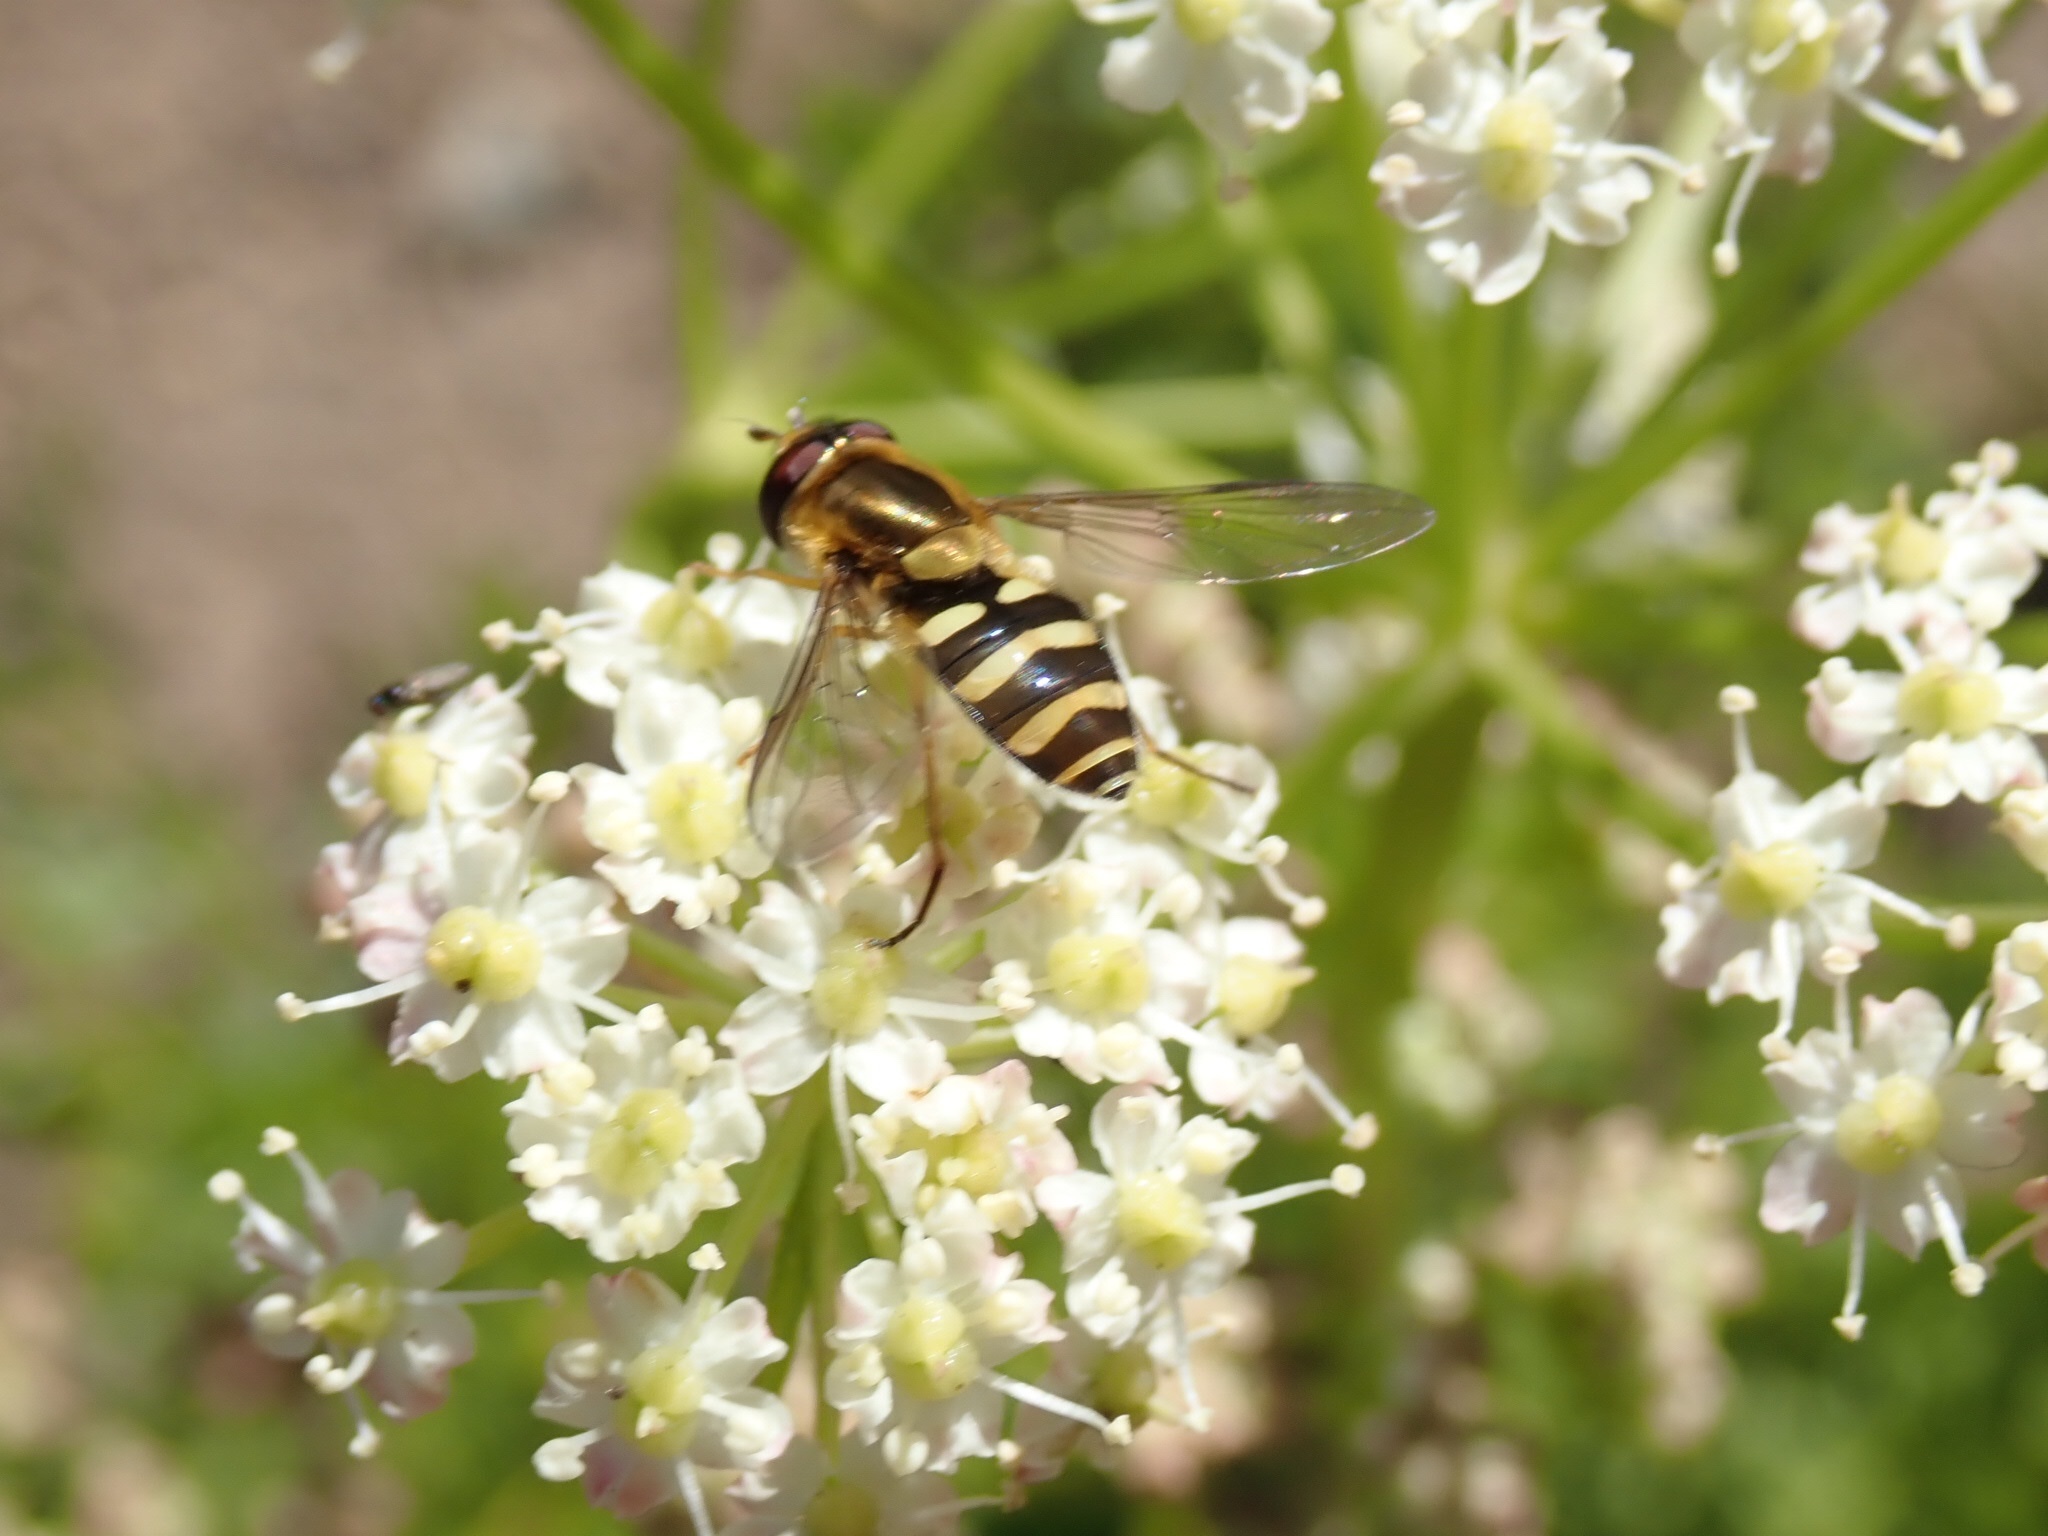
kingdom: Animalia
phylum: Arthropoda
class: Insecta
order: Diptera
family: Syrphidae
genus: Syrphus
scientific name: Syrphus opinator
